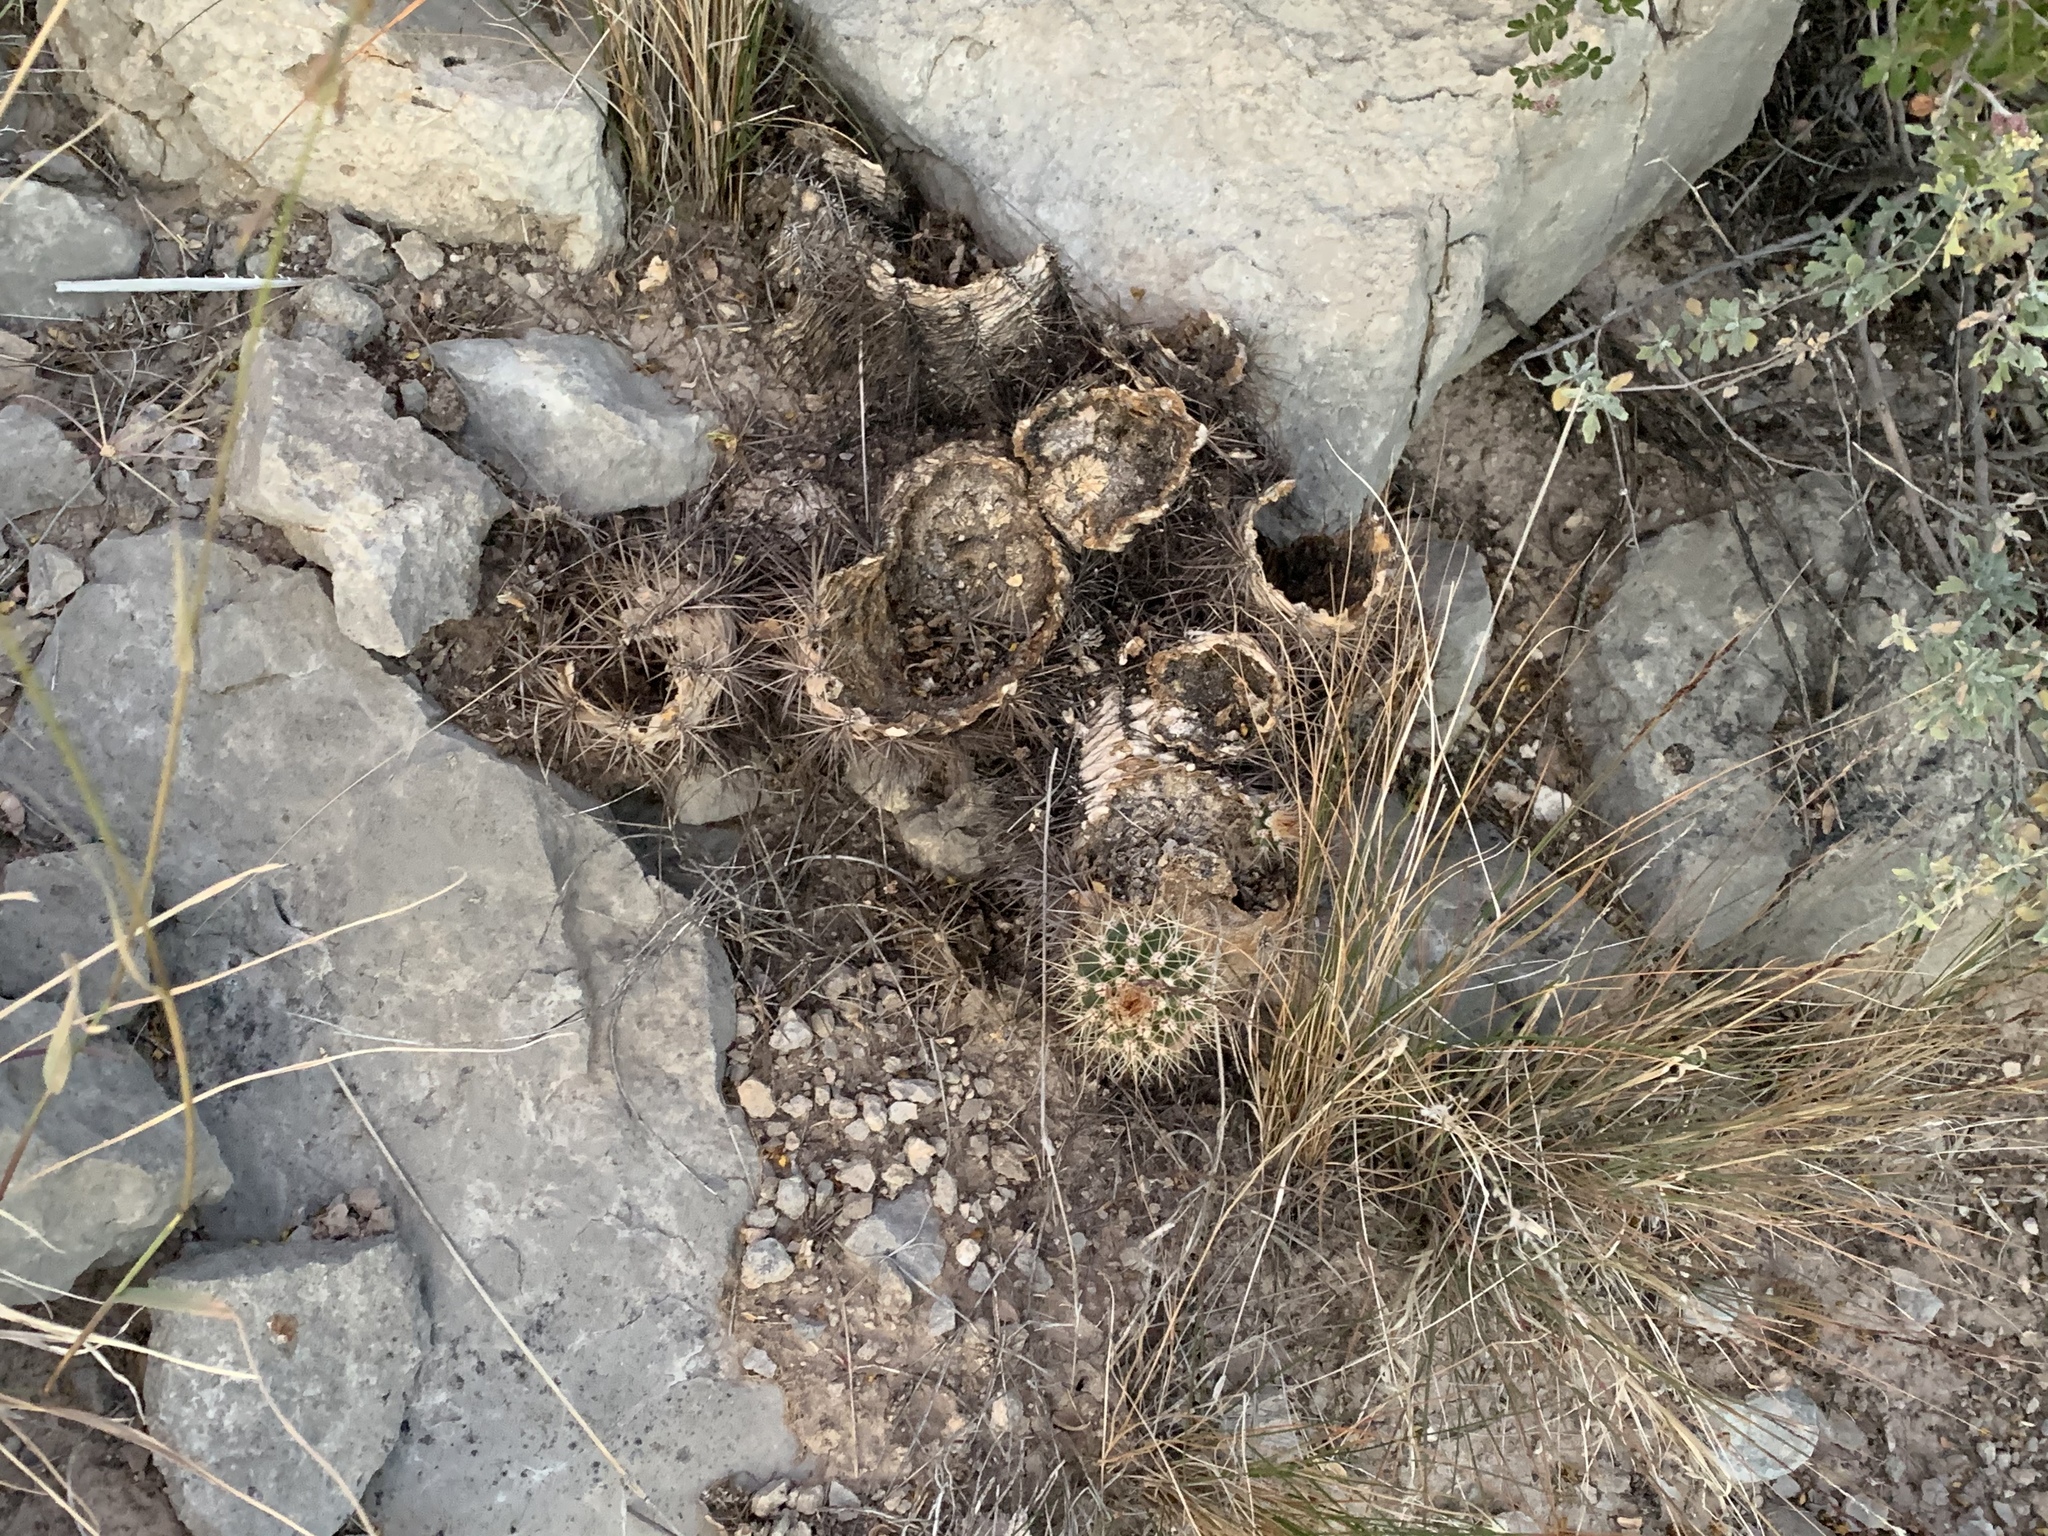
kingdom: Plantae
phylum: Tracheophyta
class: Magnoliopsida
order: Caryophyllales
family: Cactaceae
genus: Echinocereus
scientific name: Echinocereus coccineus
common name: Scarlet hedgehog cactus
